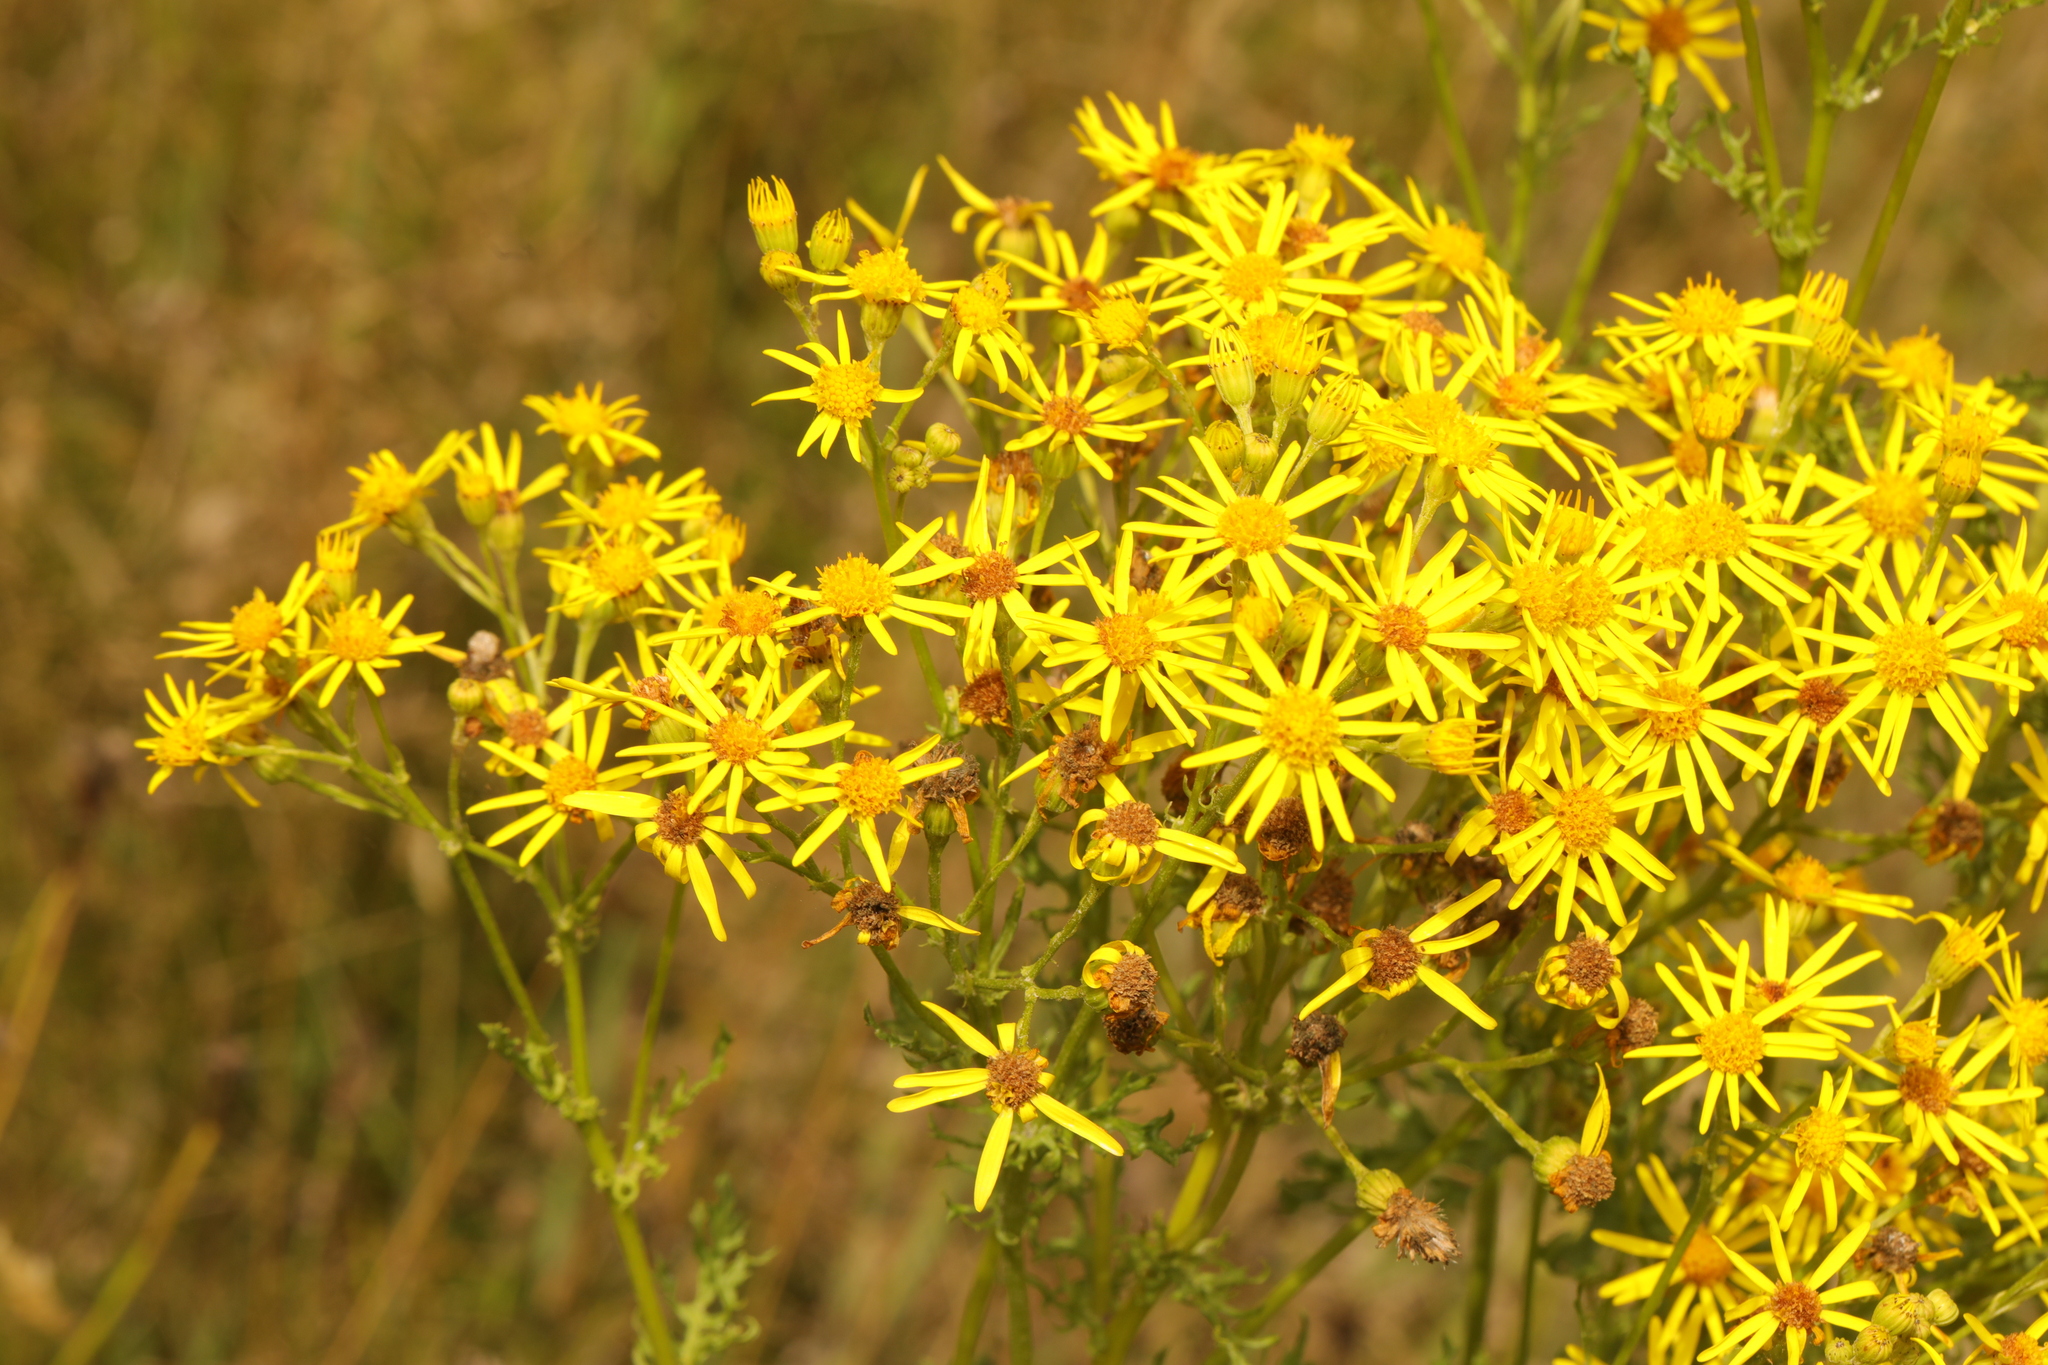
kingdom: Plantae
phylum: Tracheophyta
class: Magnoliopsida
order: Asterales
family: Asteraceae
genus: Jacobaea
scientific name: Jacobaea vulgaris
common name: Stinking willie
